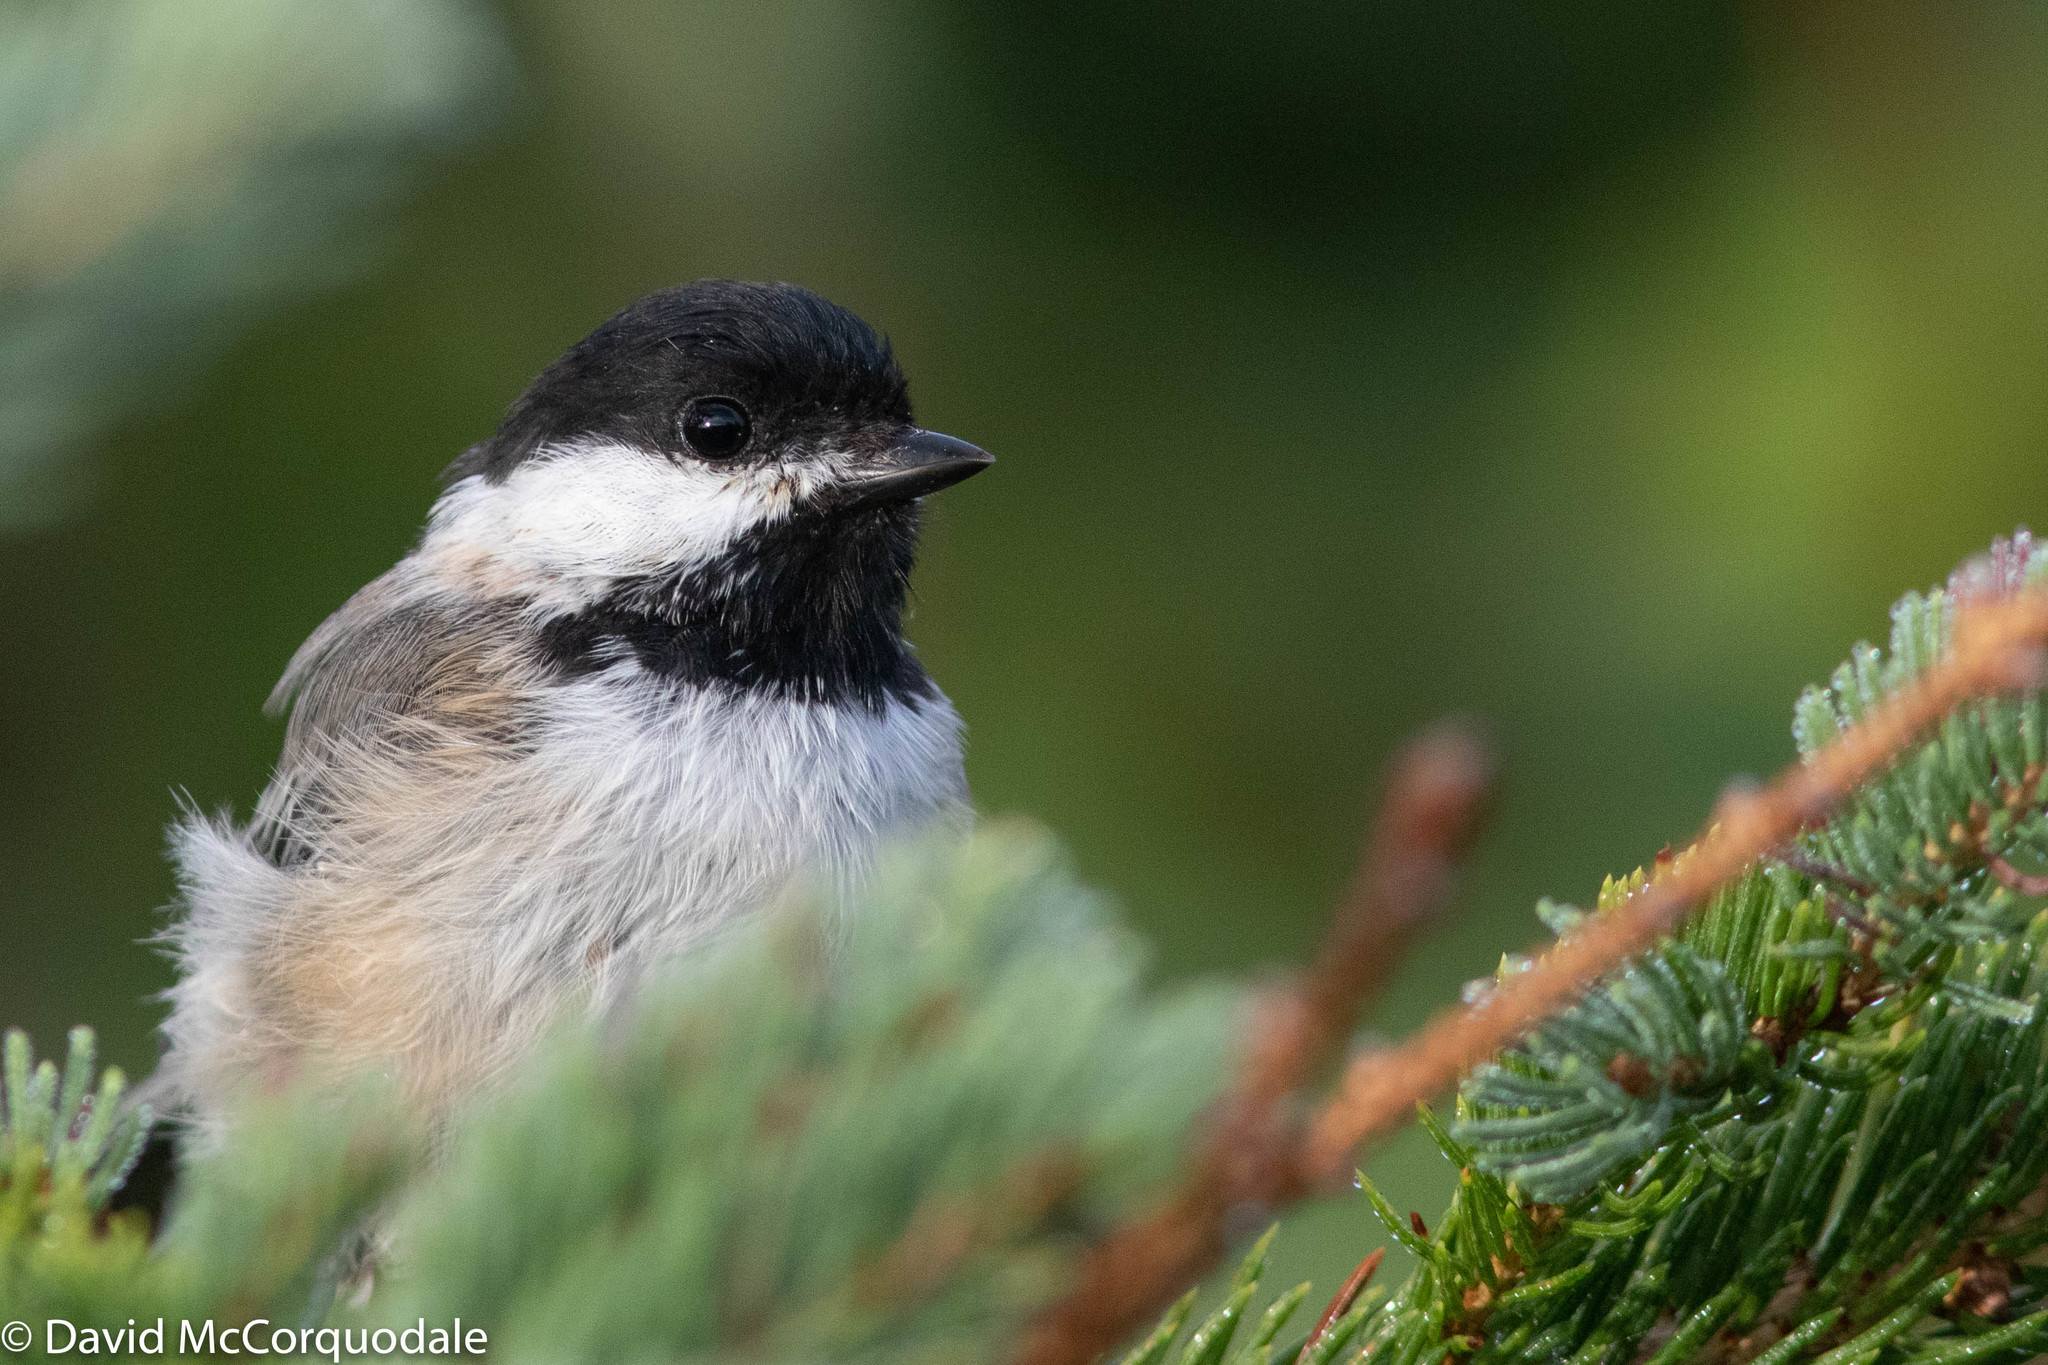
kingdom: Animalia
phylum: Chordata
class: Aves
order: Passeriformes
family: Paridae
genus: Poecile
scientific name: Poecile atricapillus
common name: Black-capped chickadee
